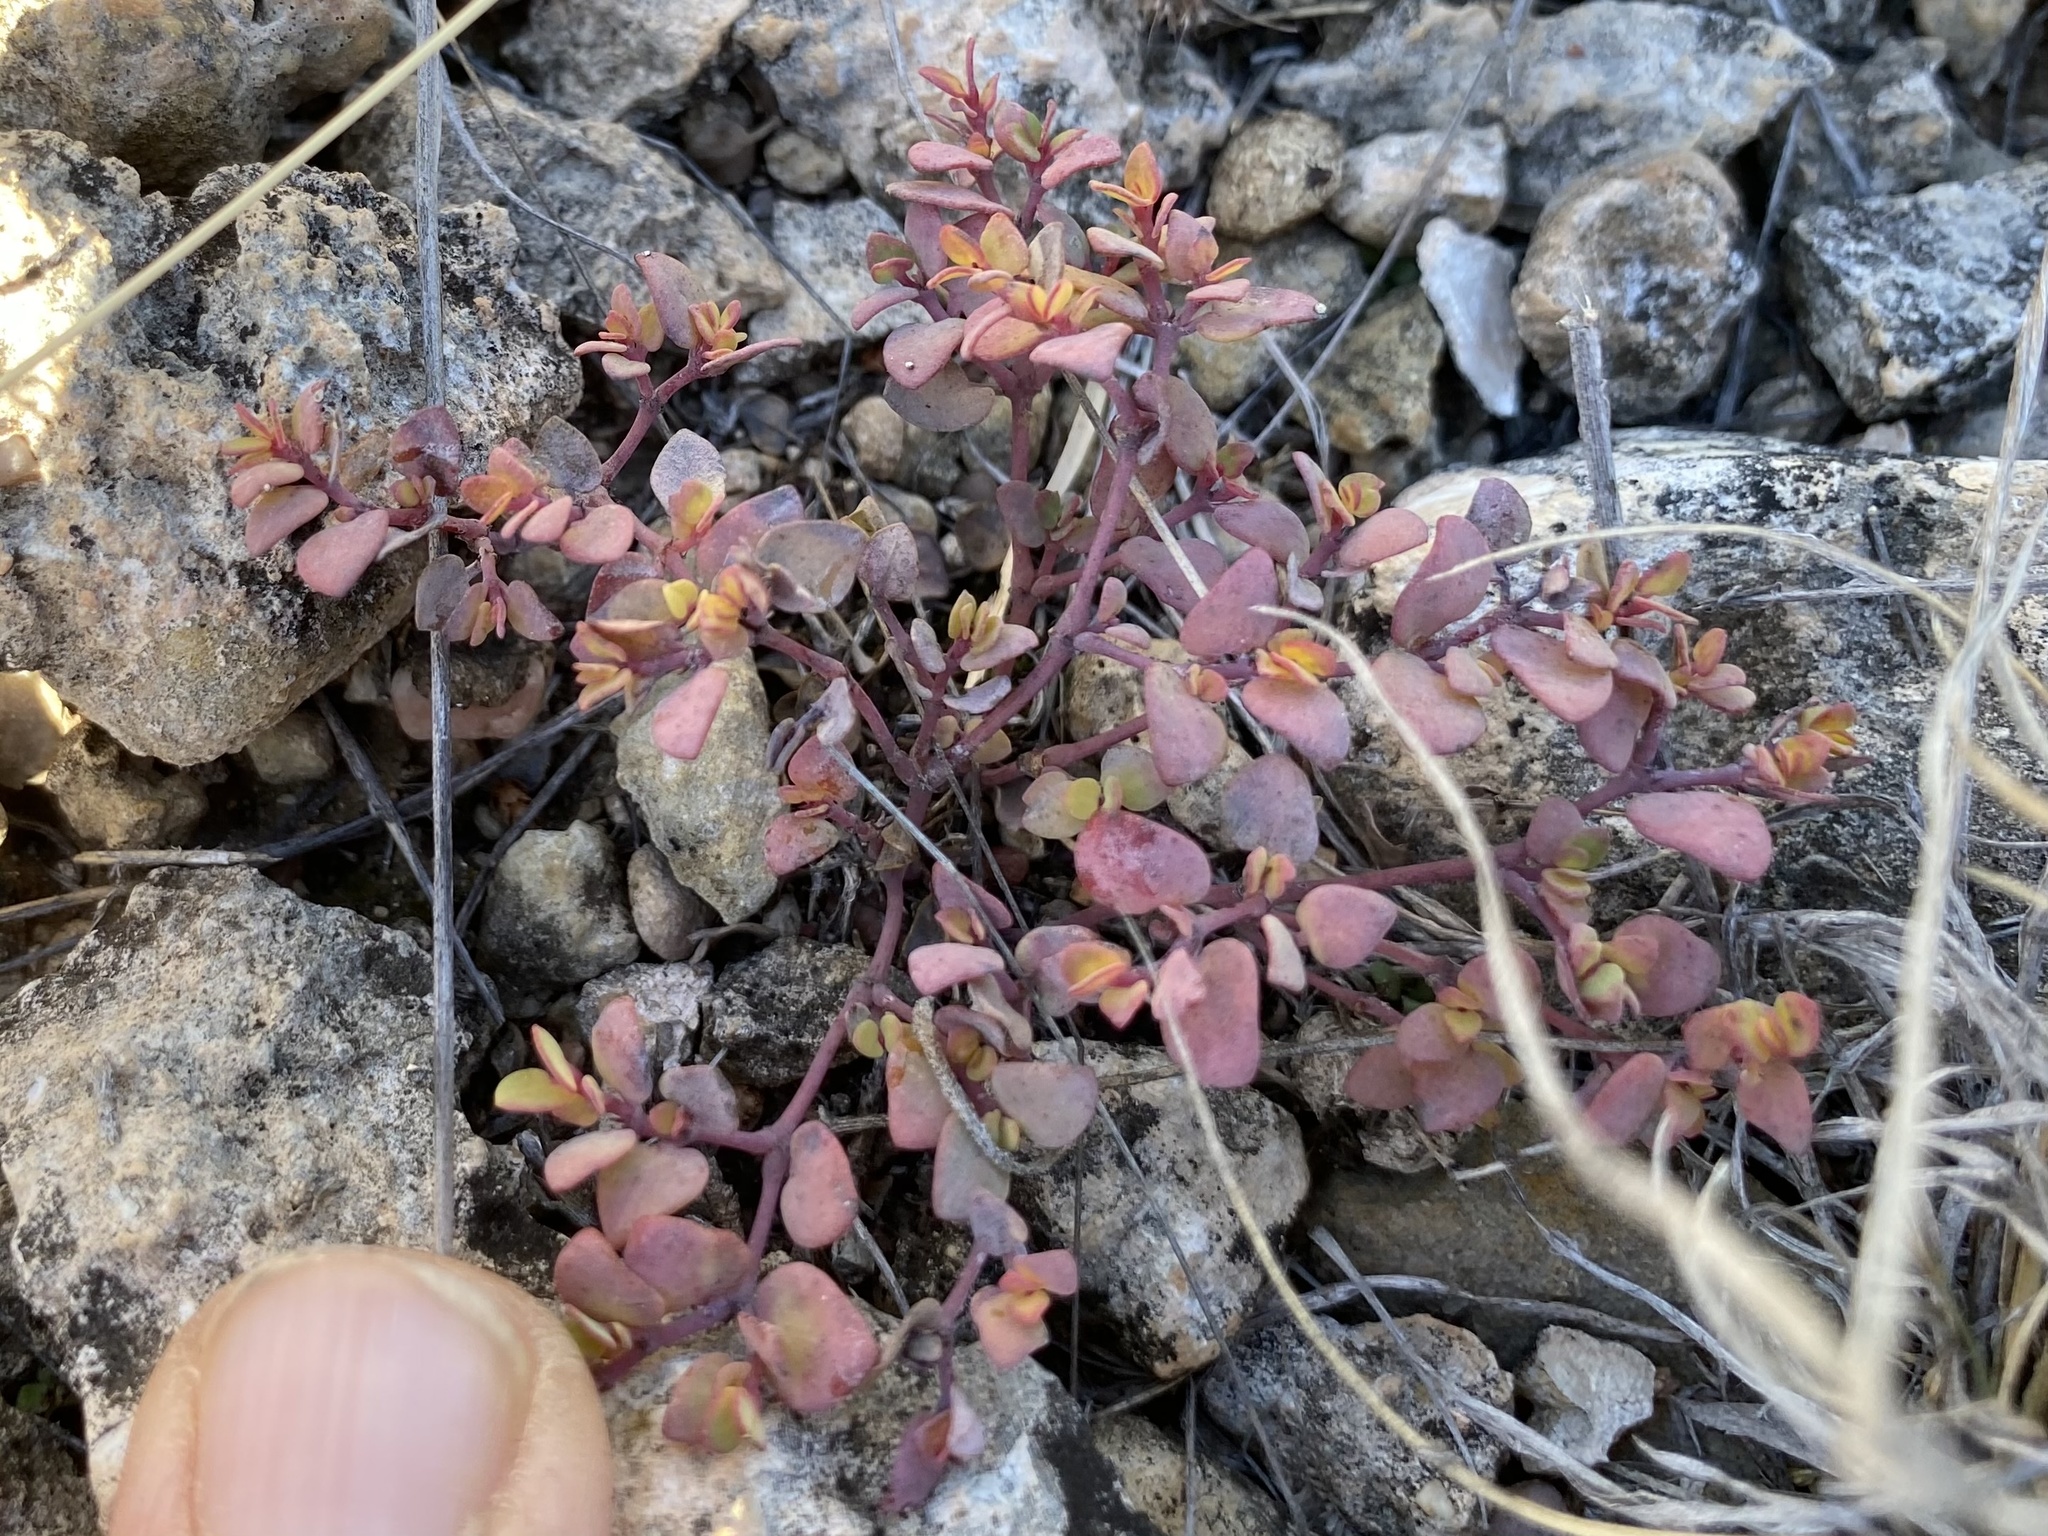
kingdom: Plantae
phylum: Tracheophyta
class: Magnoliopsida
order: Malpighiales
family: Euphorbiaceae
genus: Euphorbia
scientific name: Euphorbia fendleri
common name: Fendler's euphorbia
